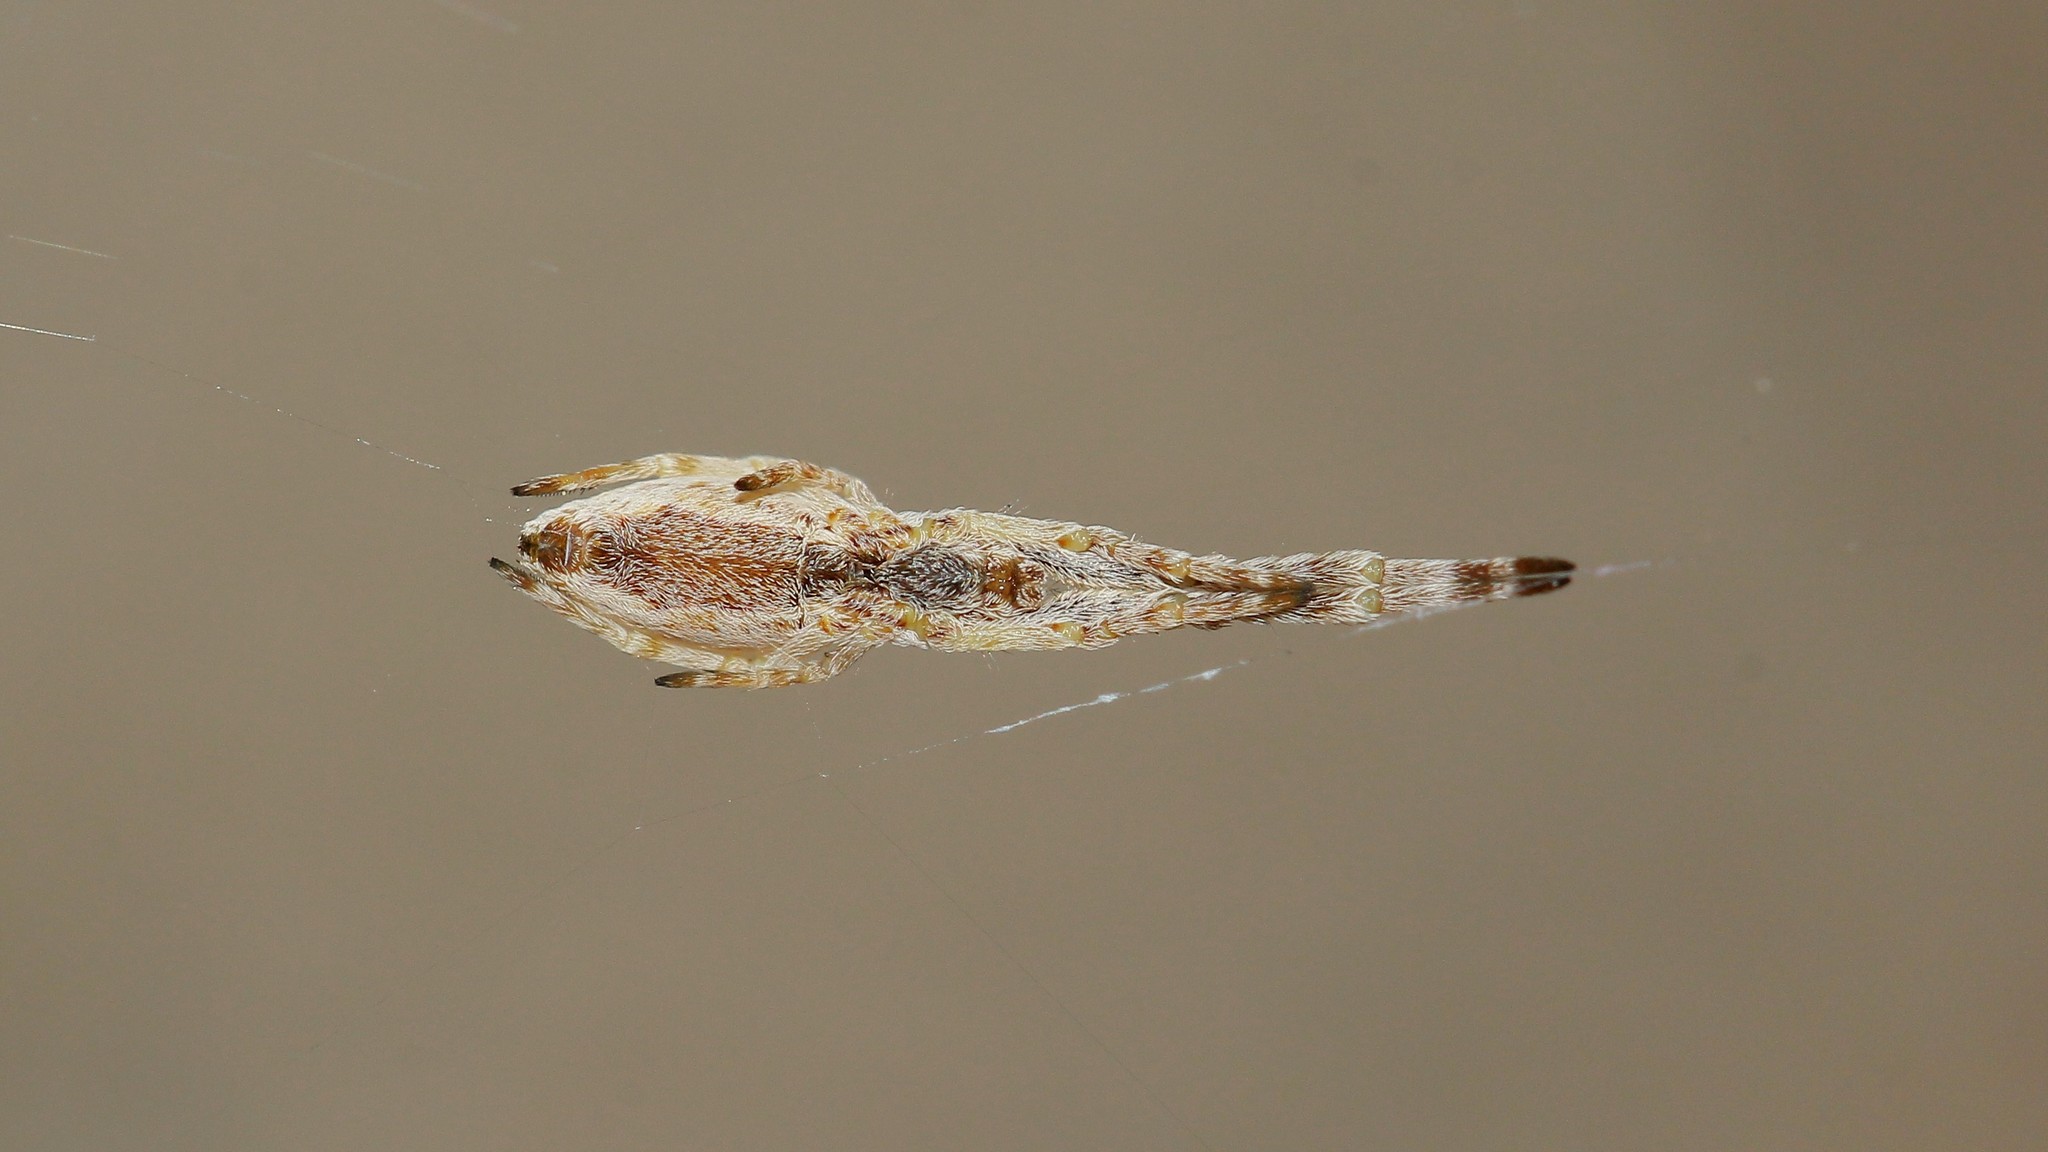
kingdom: Animalia
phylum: Arthropoda
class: Arachnida
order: Araneae
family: Uloboridae
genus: Uloborus
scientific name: Uloborus walckenaerius
